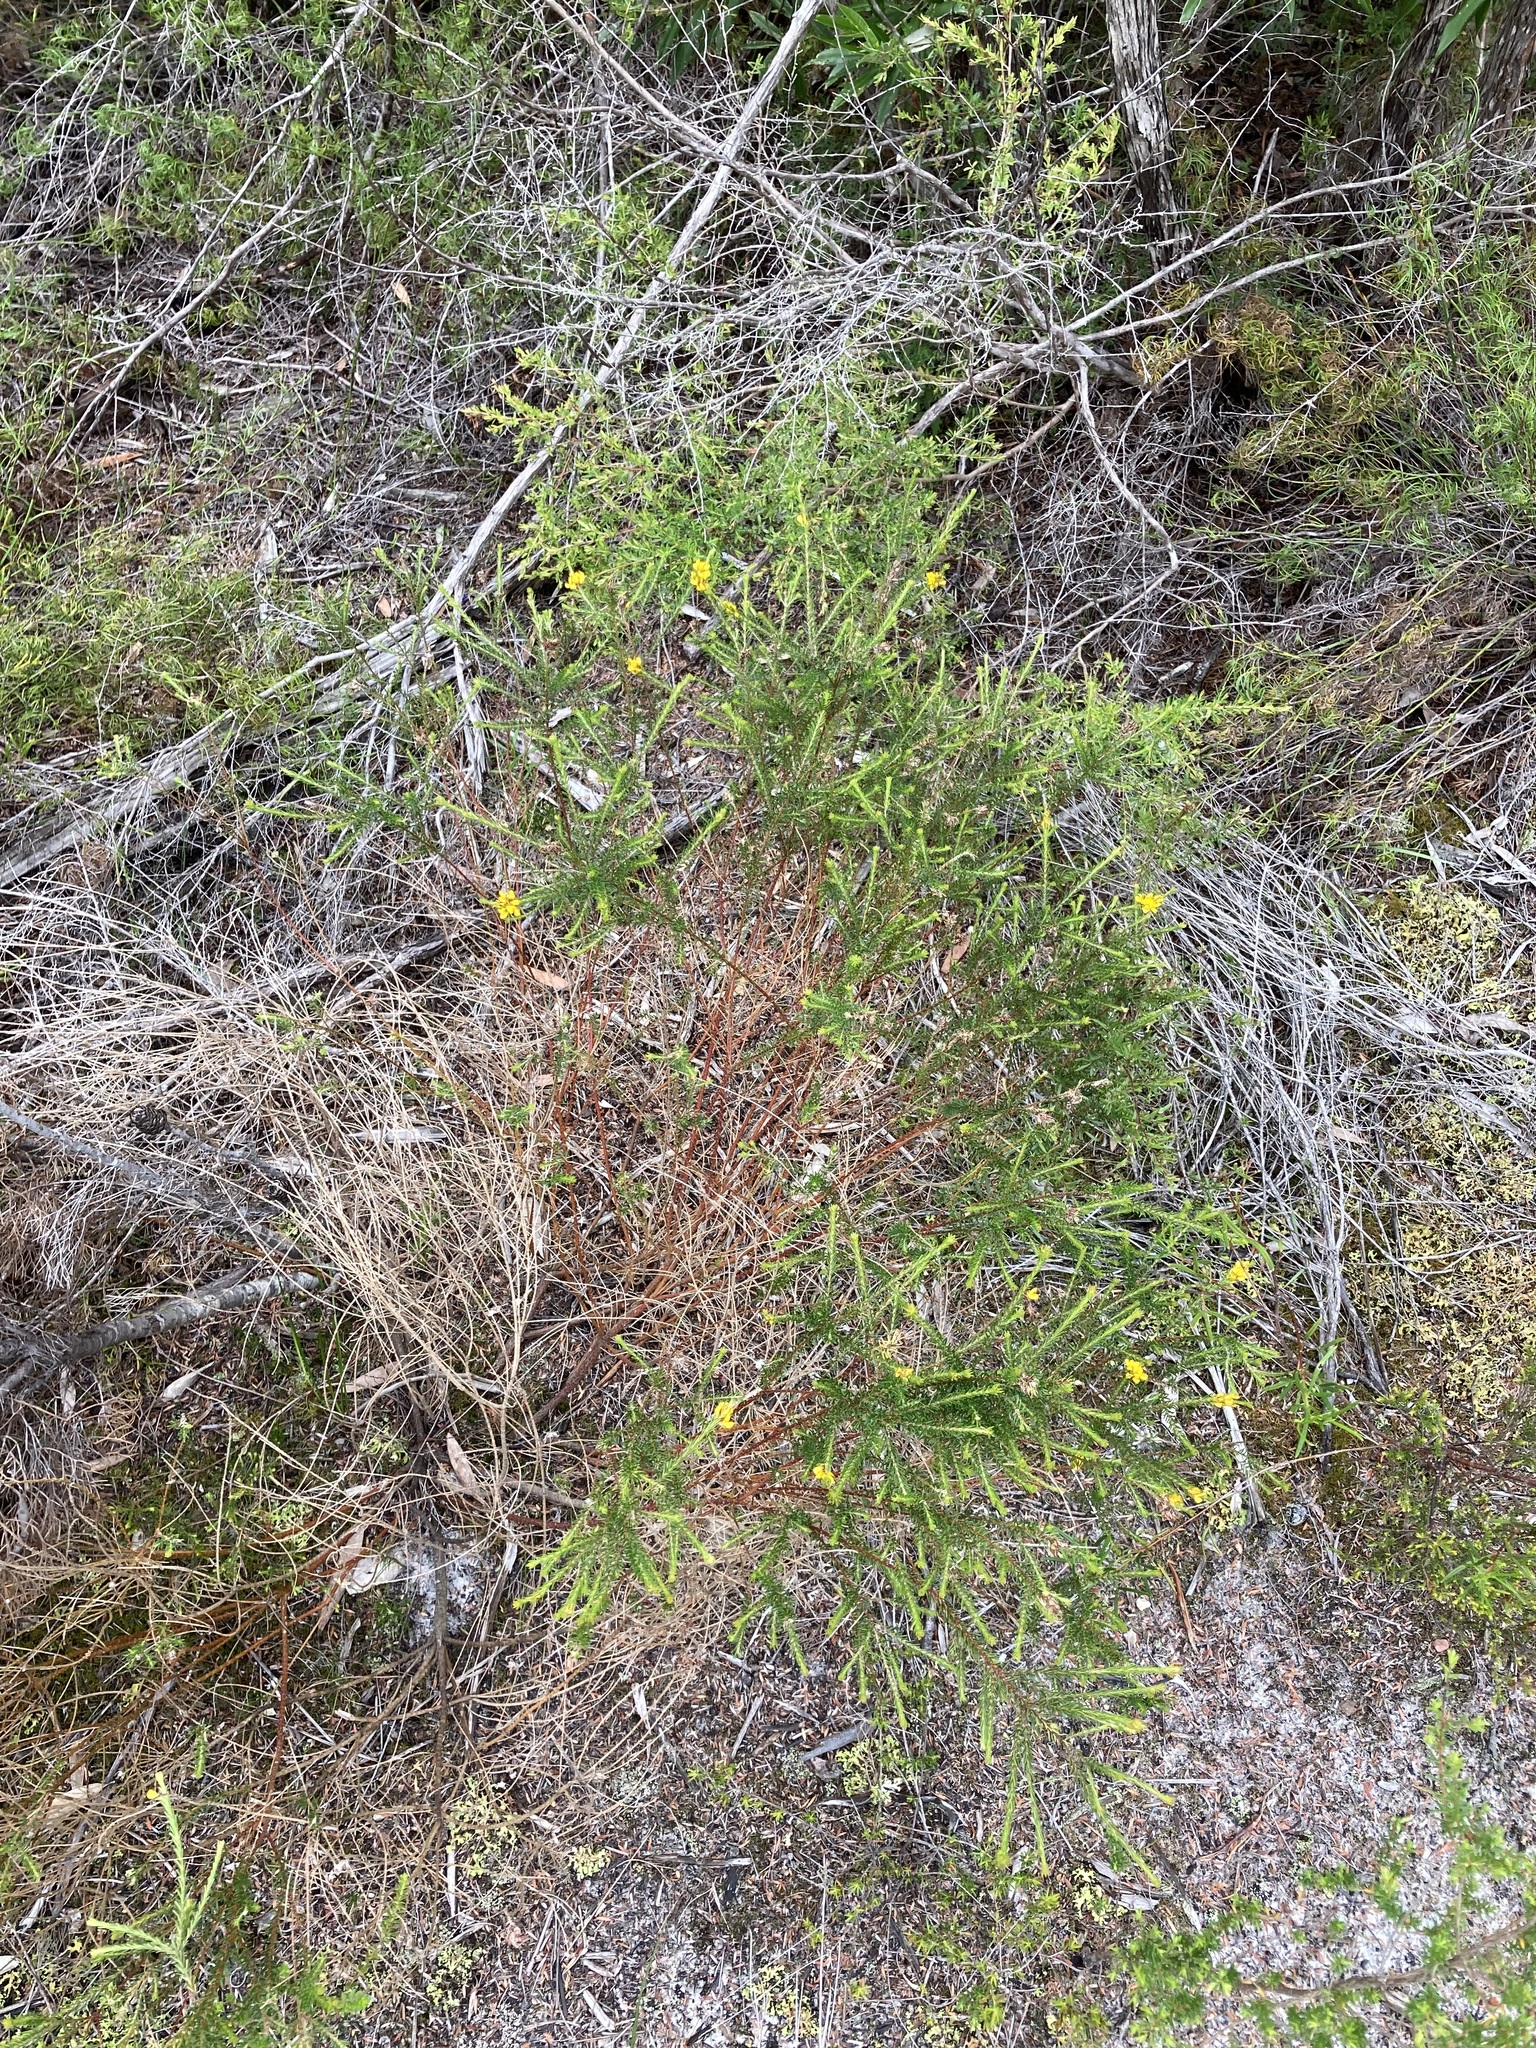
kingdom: Plantae
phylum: Tracheophyta
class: Magnoliopsida
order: Fabales
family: Fabaceae
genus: Phyllota
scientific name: Phyllota phylicoides
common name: Heath phyllota
